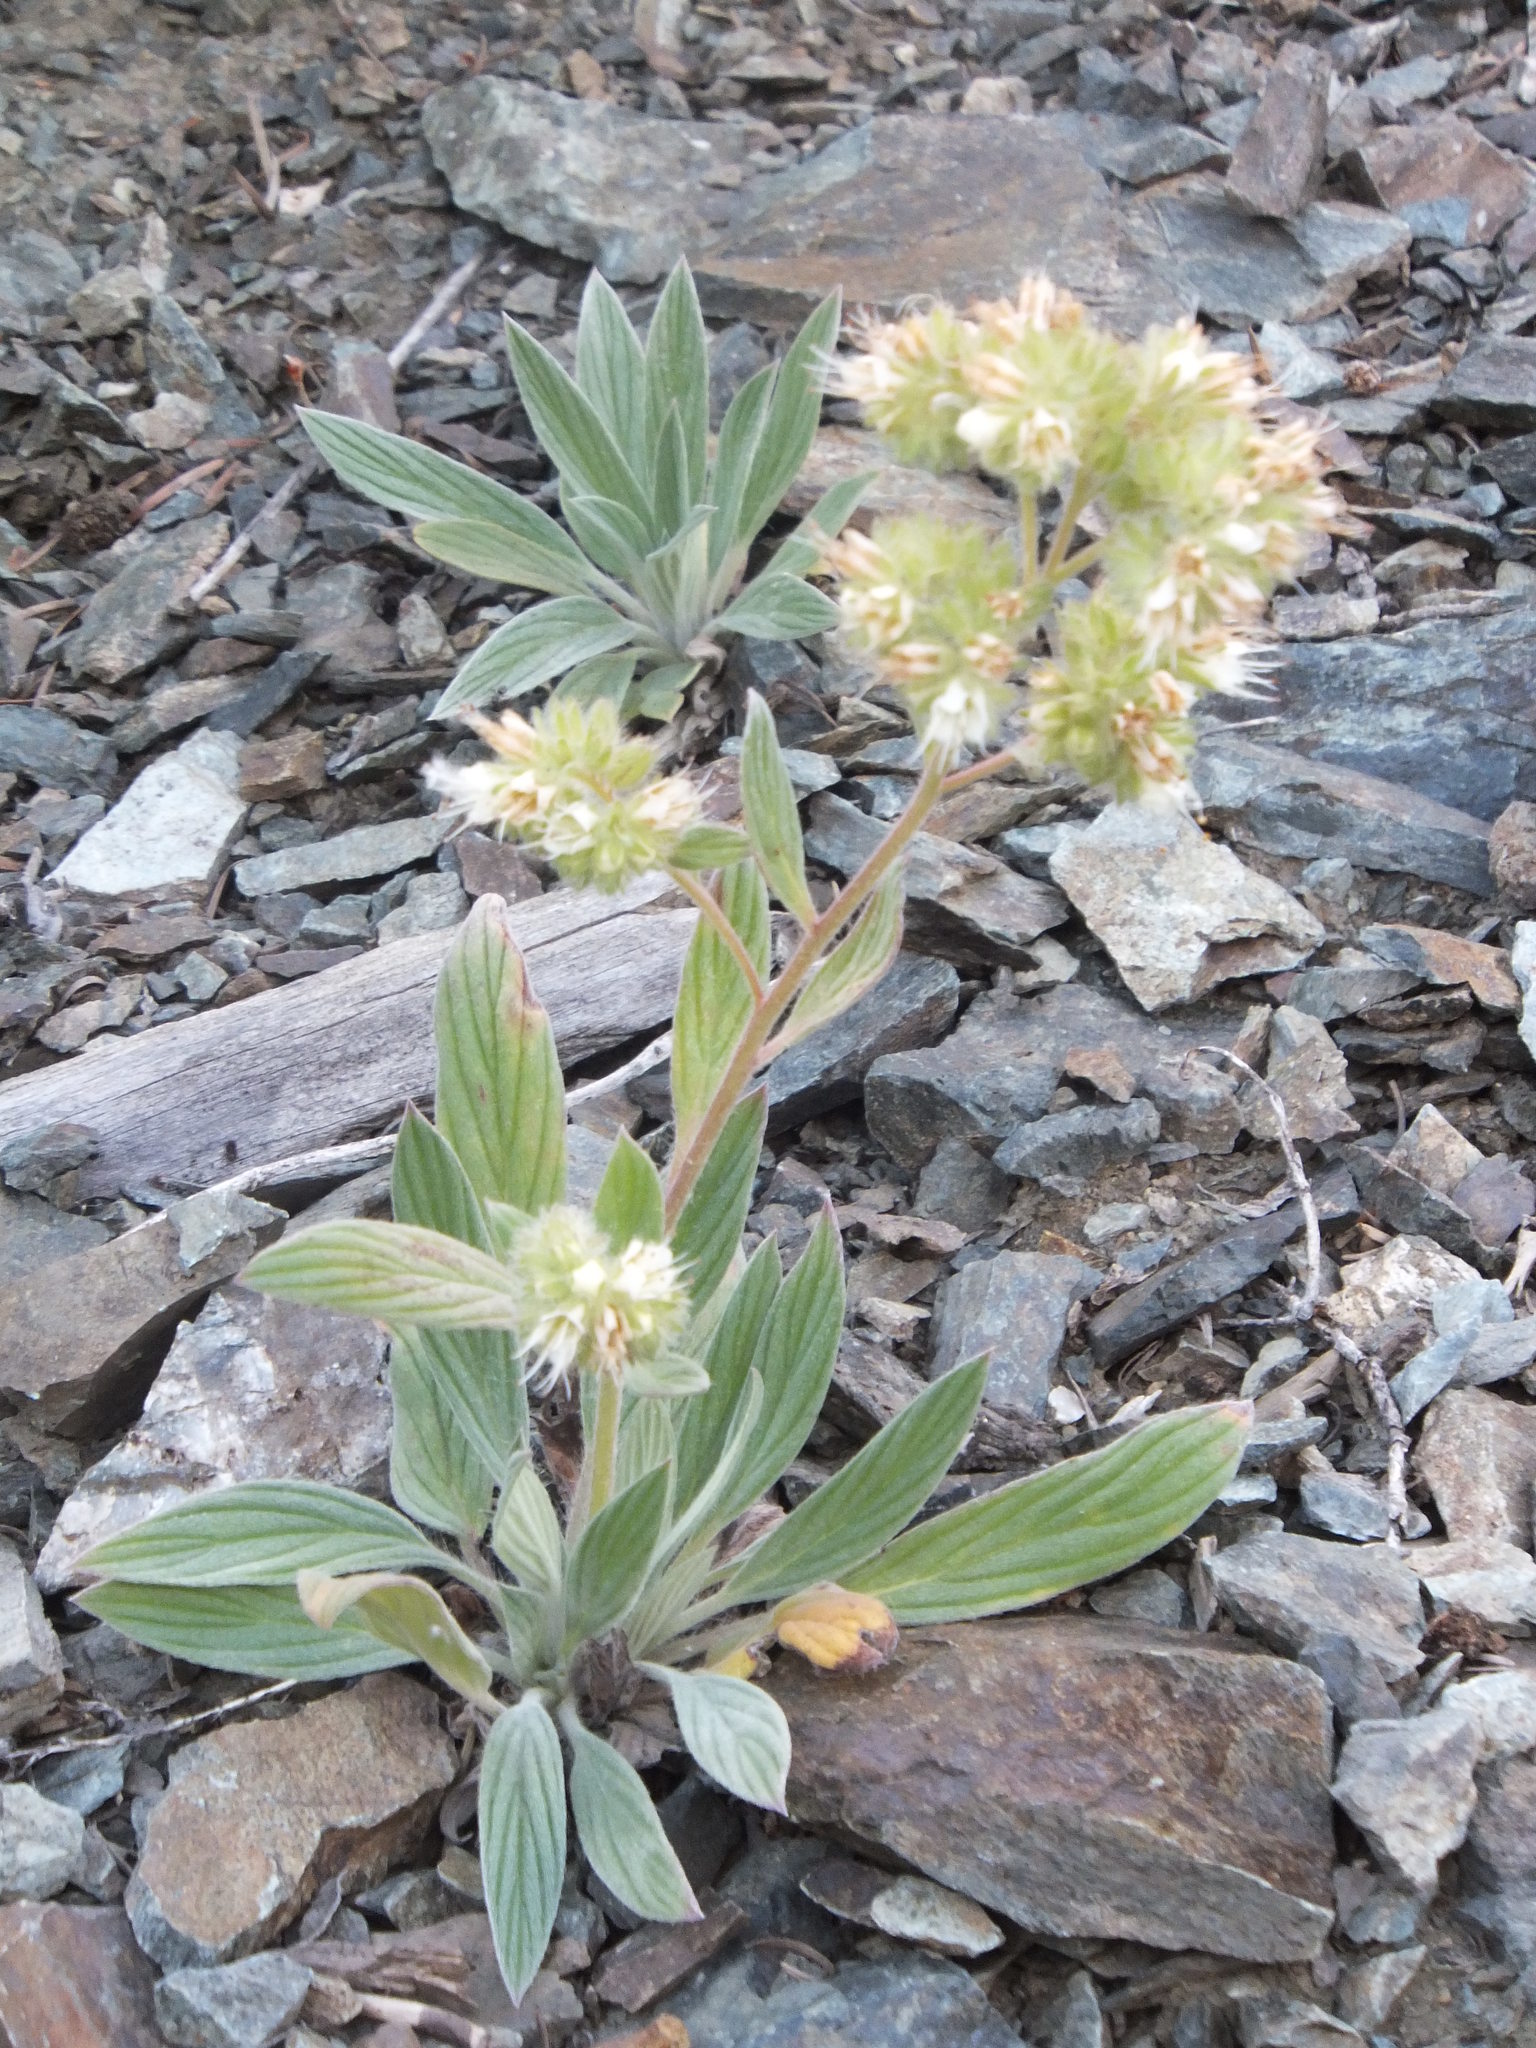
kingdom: Plantae
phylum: Tracheophyta
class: Magnoliopsida
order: Boraginales
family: Hydrophyllaceae
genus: Phacelia
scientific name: Phacelia hastata
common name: Silver-leaved phacelia
